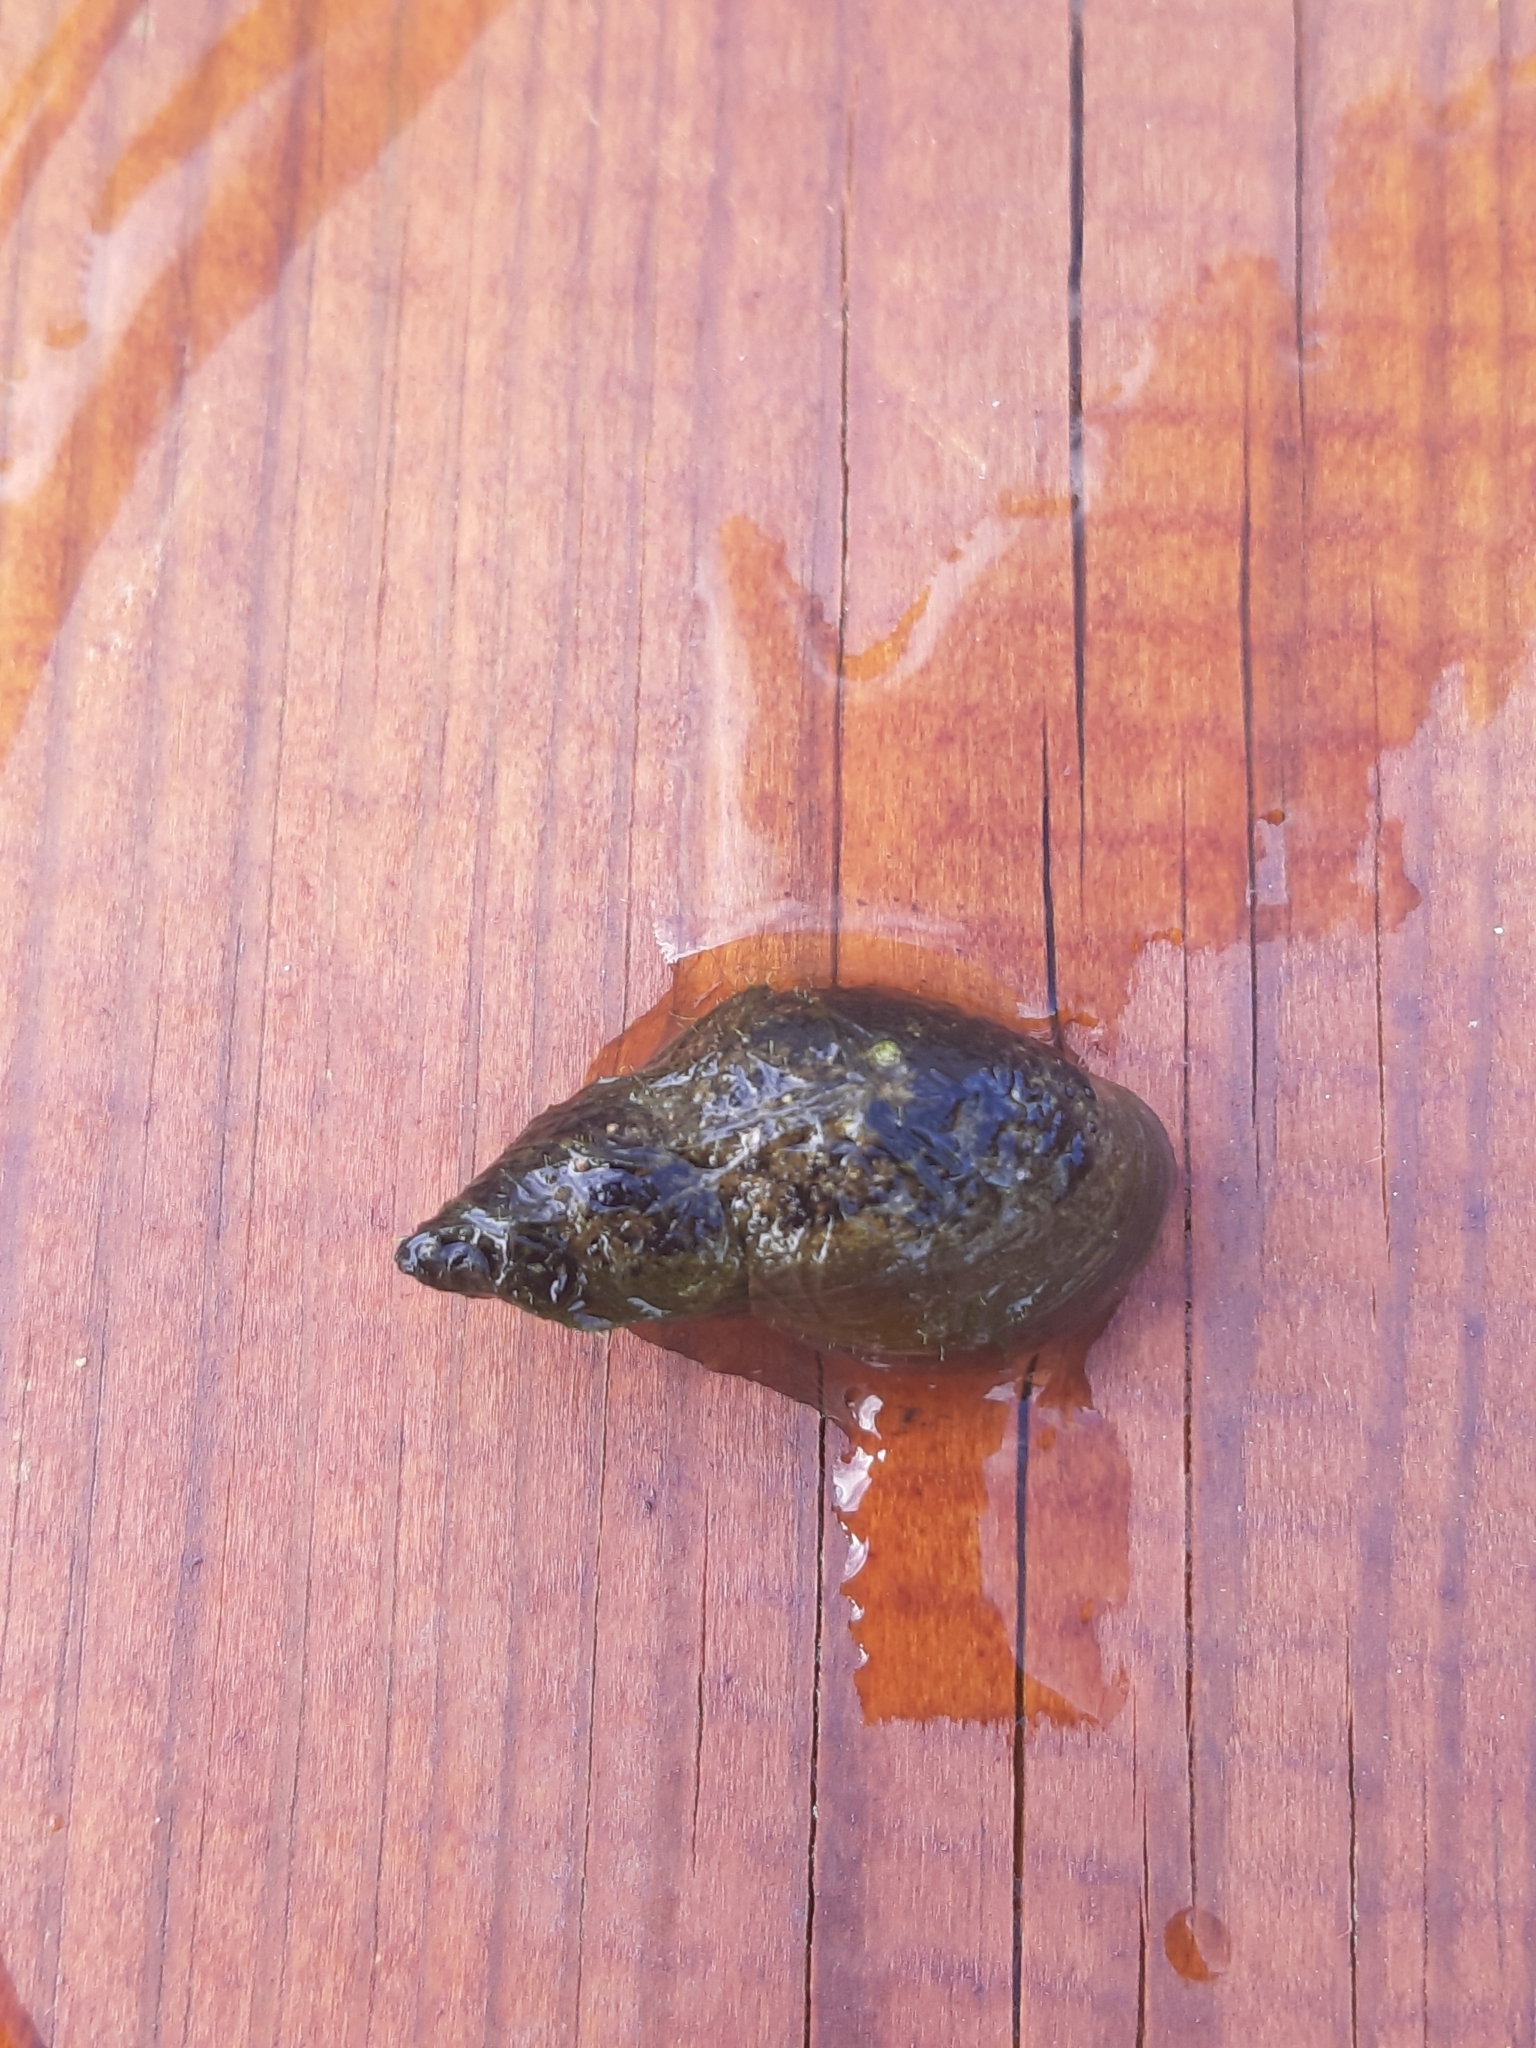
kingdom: Animalia
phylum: Mollusca
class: Gastropoda
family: Lymnaeidae
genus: Lymnaea
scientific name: Lymnaea stagnalis
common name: Great pond snail
